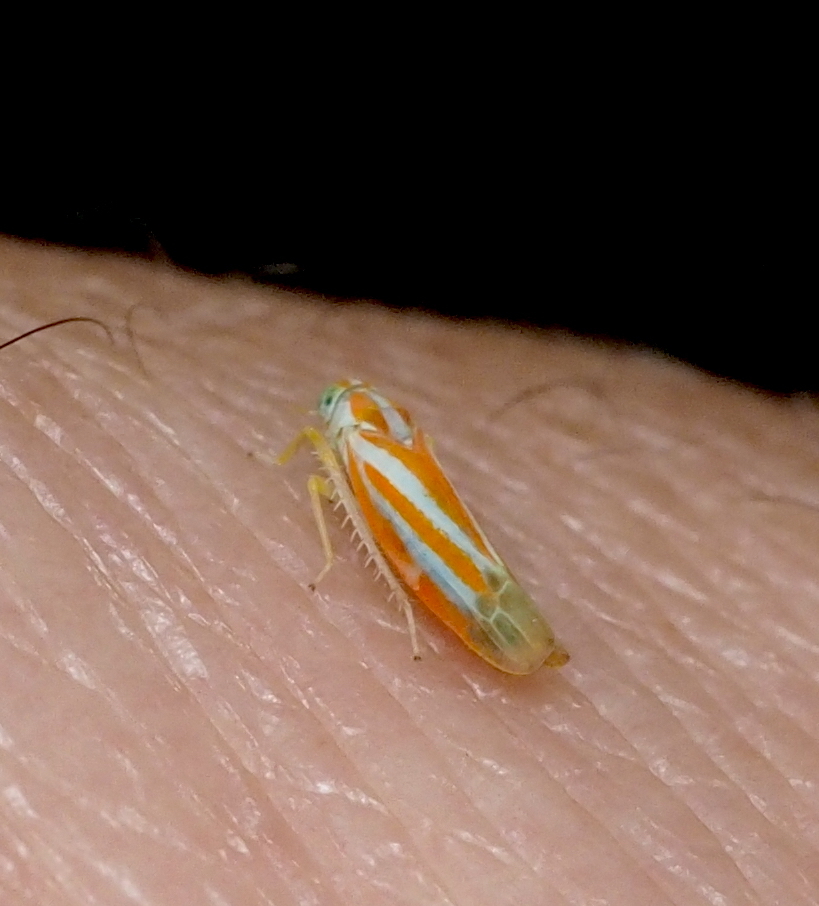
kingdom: Animalia
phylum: Arthropoda
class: Insecta
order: Hemiptera
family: Cicadellidae
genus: Alebra
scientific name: Alebra albostriella
